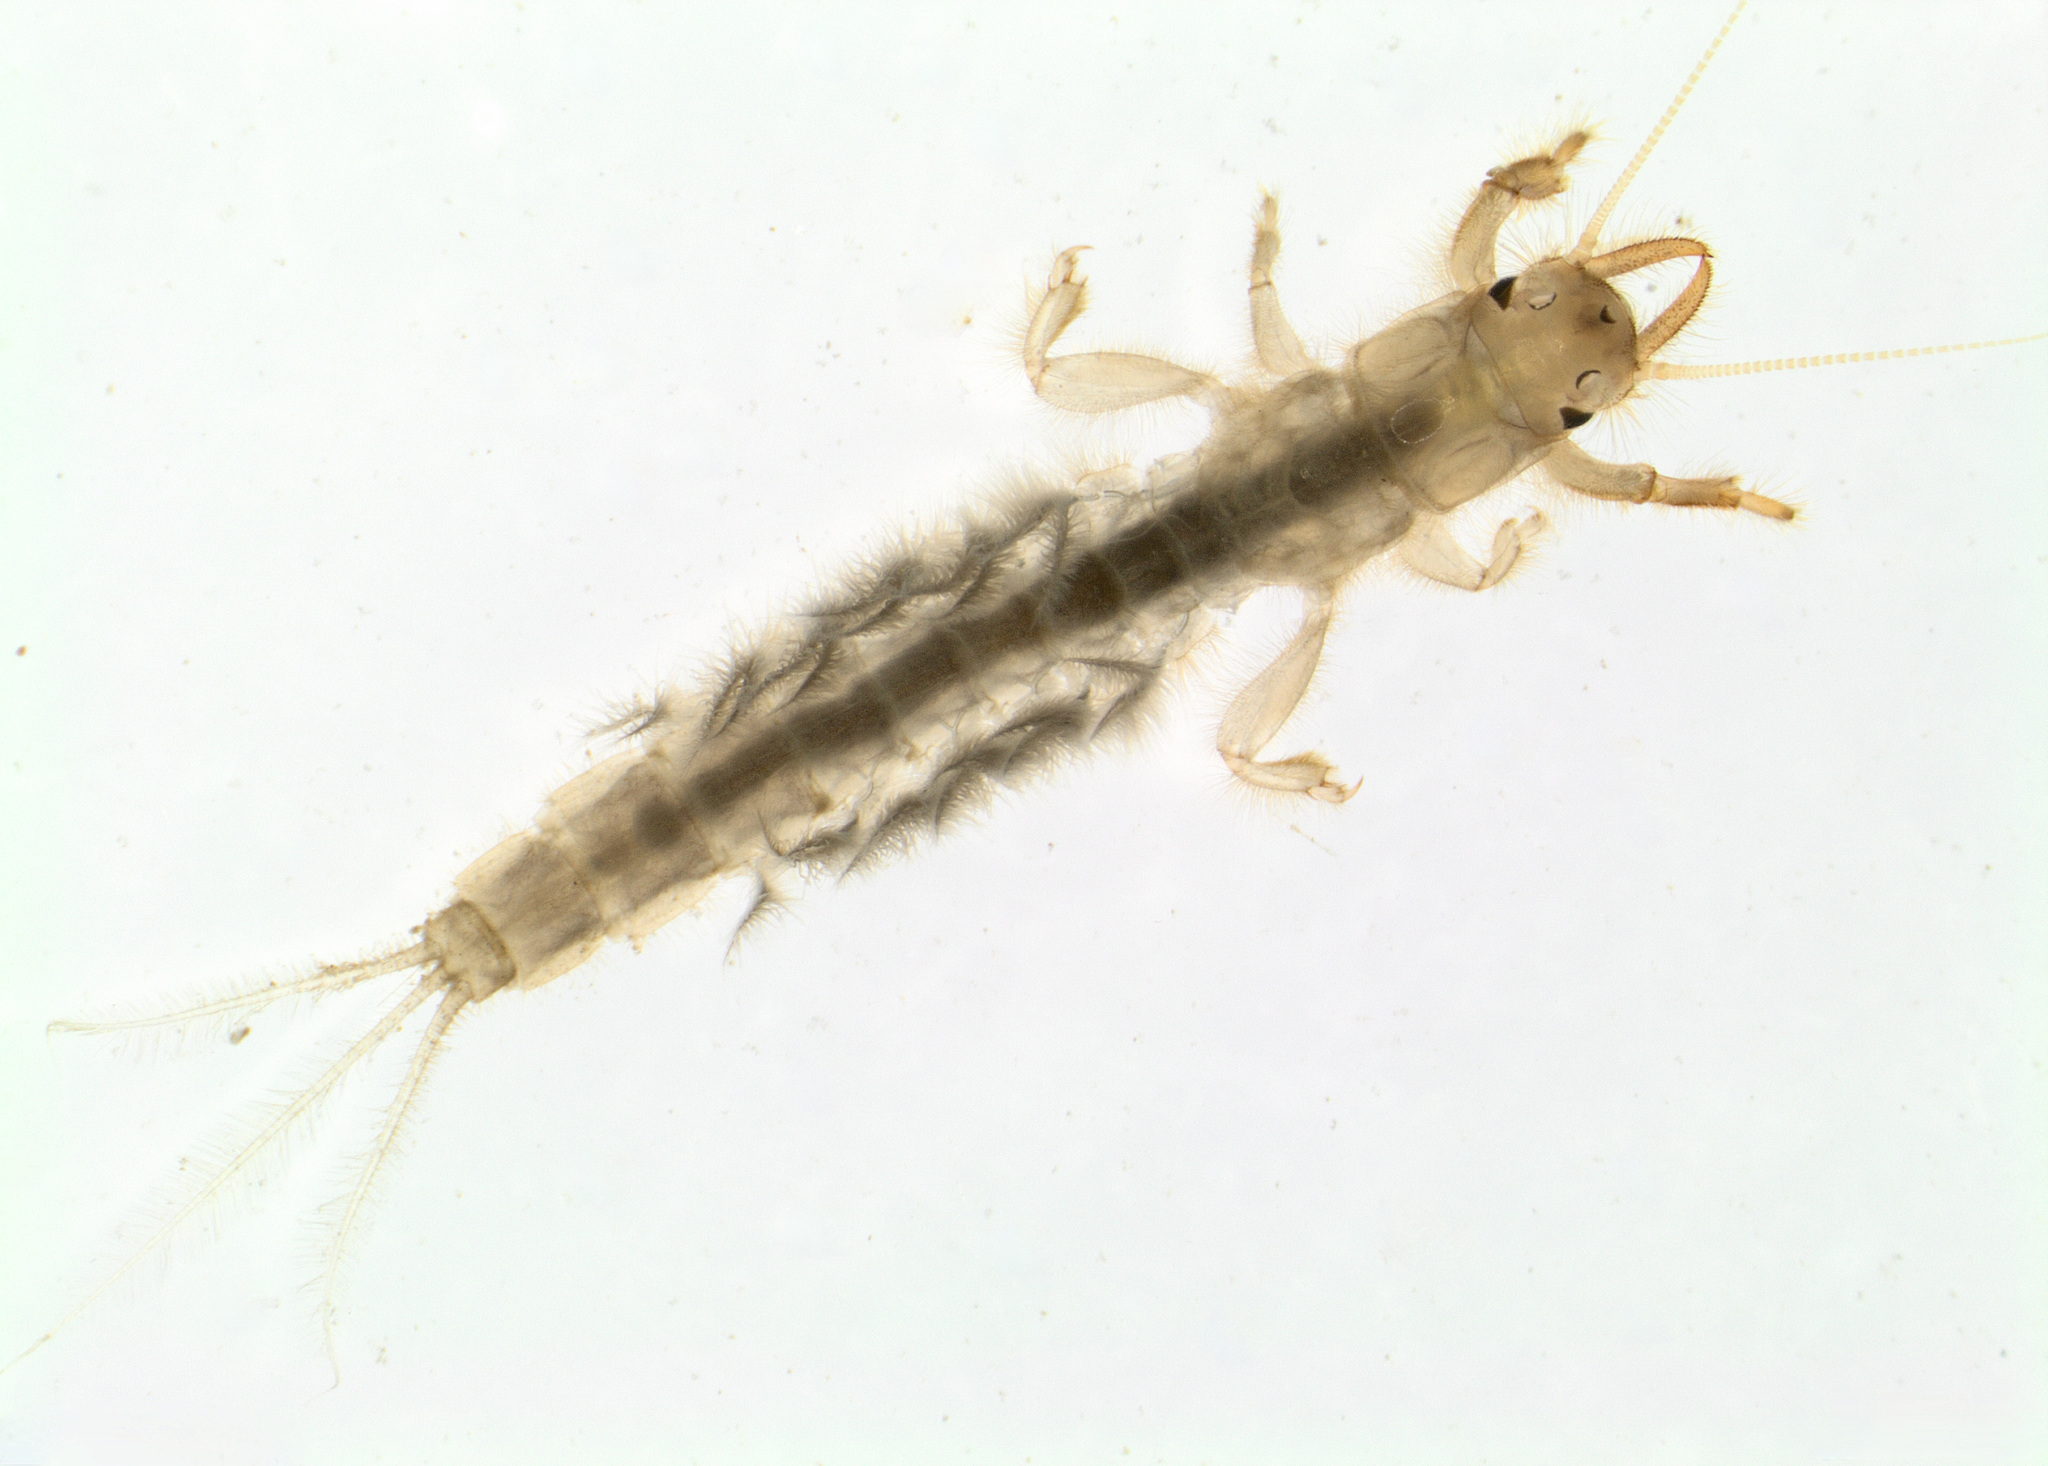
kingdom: Animalia
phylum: Arthropoda
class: Insecta
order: Ephemeroptera
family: Ichthybotidae
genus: Ichthybotus
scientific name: Ichthybotus hudsoni
